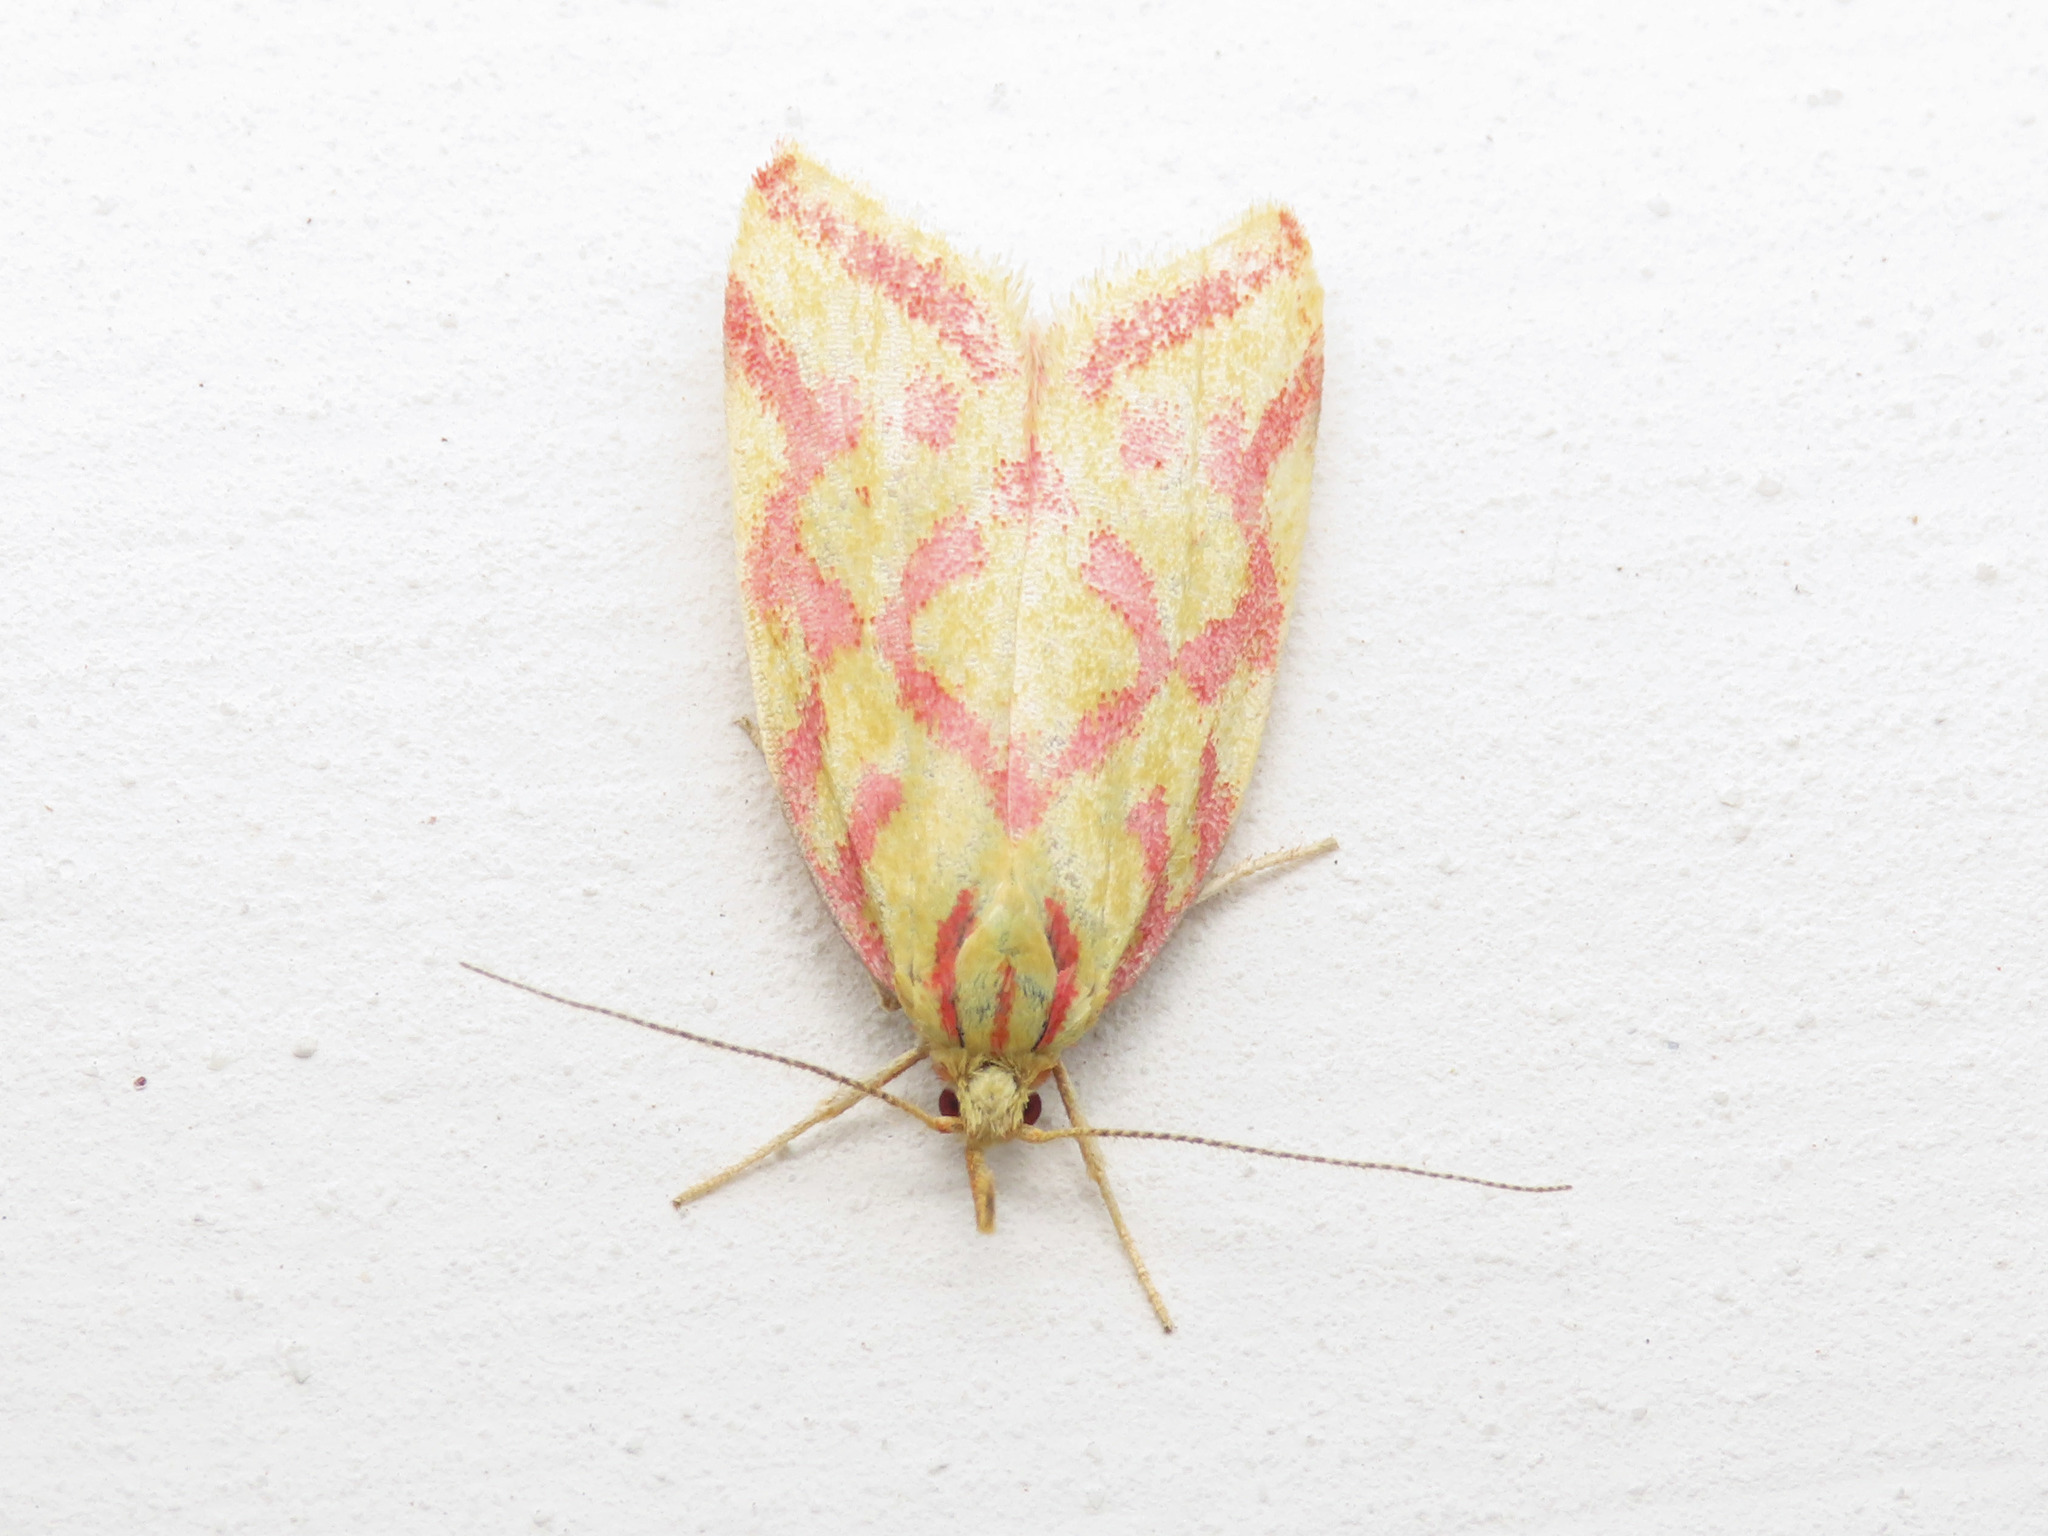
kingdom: Animalia
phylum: Arthropoda
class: Insecta
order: Lepidoptera
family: Oecophoridae
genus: Hypercallia
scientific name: Hypercallia citrinalis
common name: Lemon flat-body
